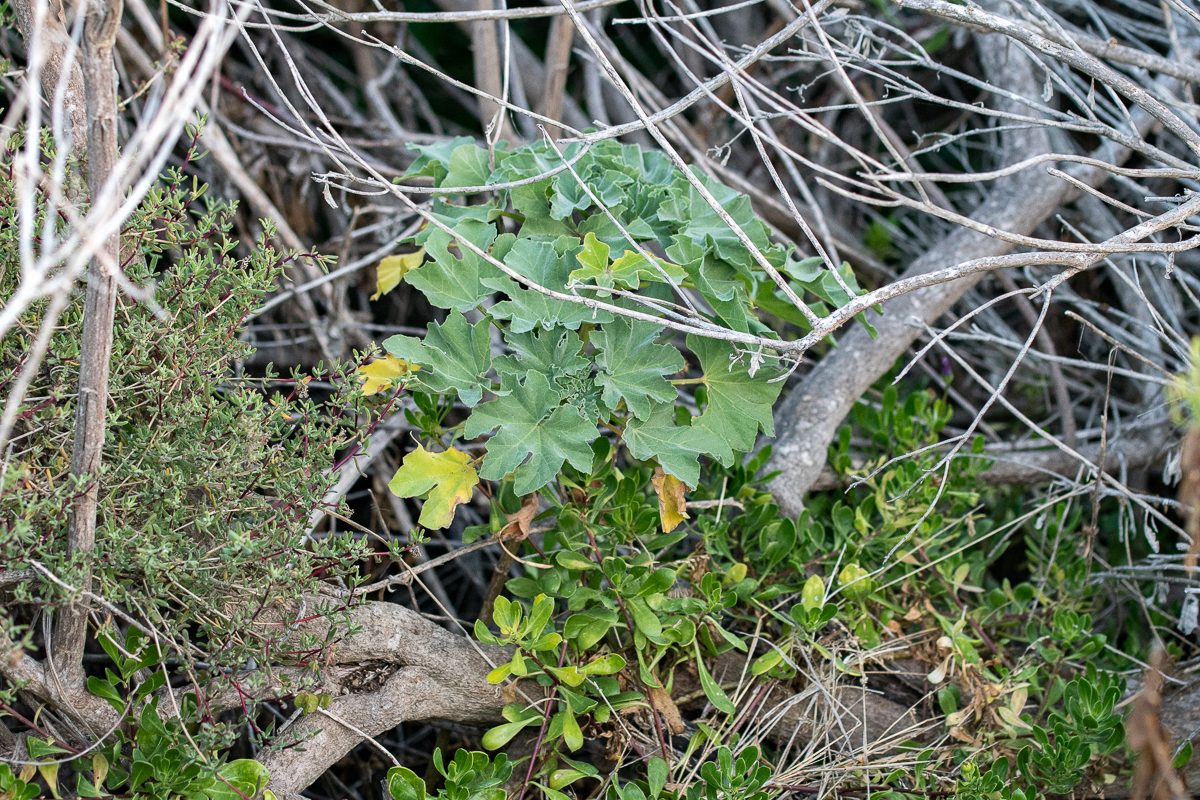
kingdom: Plantae
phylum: Tracheophyta
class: Magnoliopsida
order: Malvales
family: Malvaceae
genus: Malva
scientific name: Malva arborea
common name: Tree mallow
